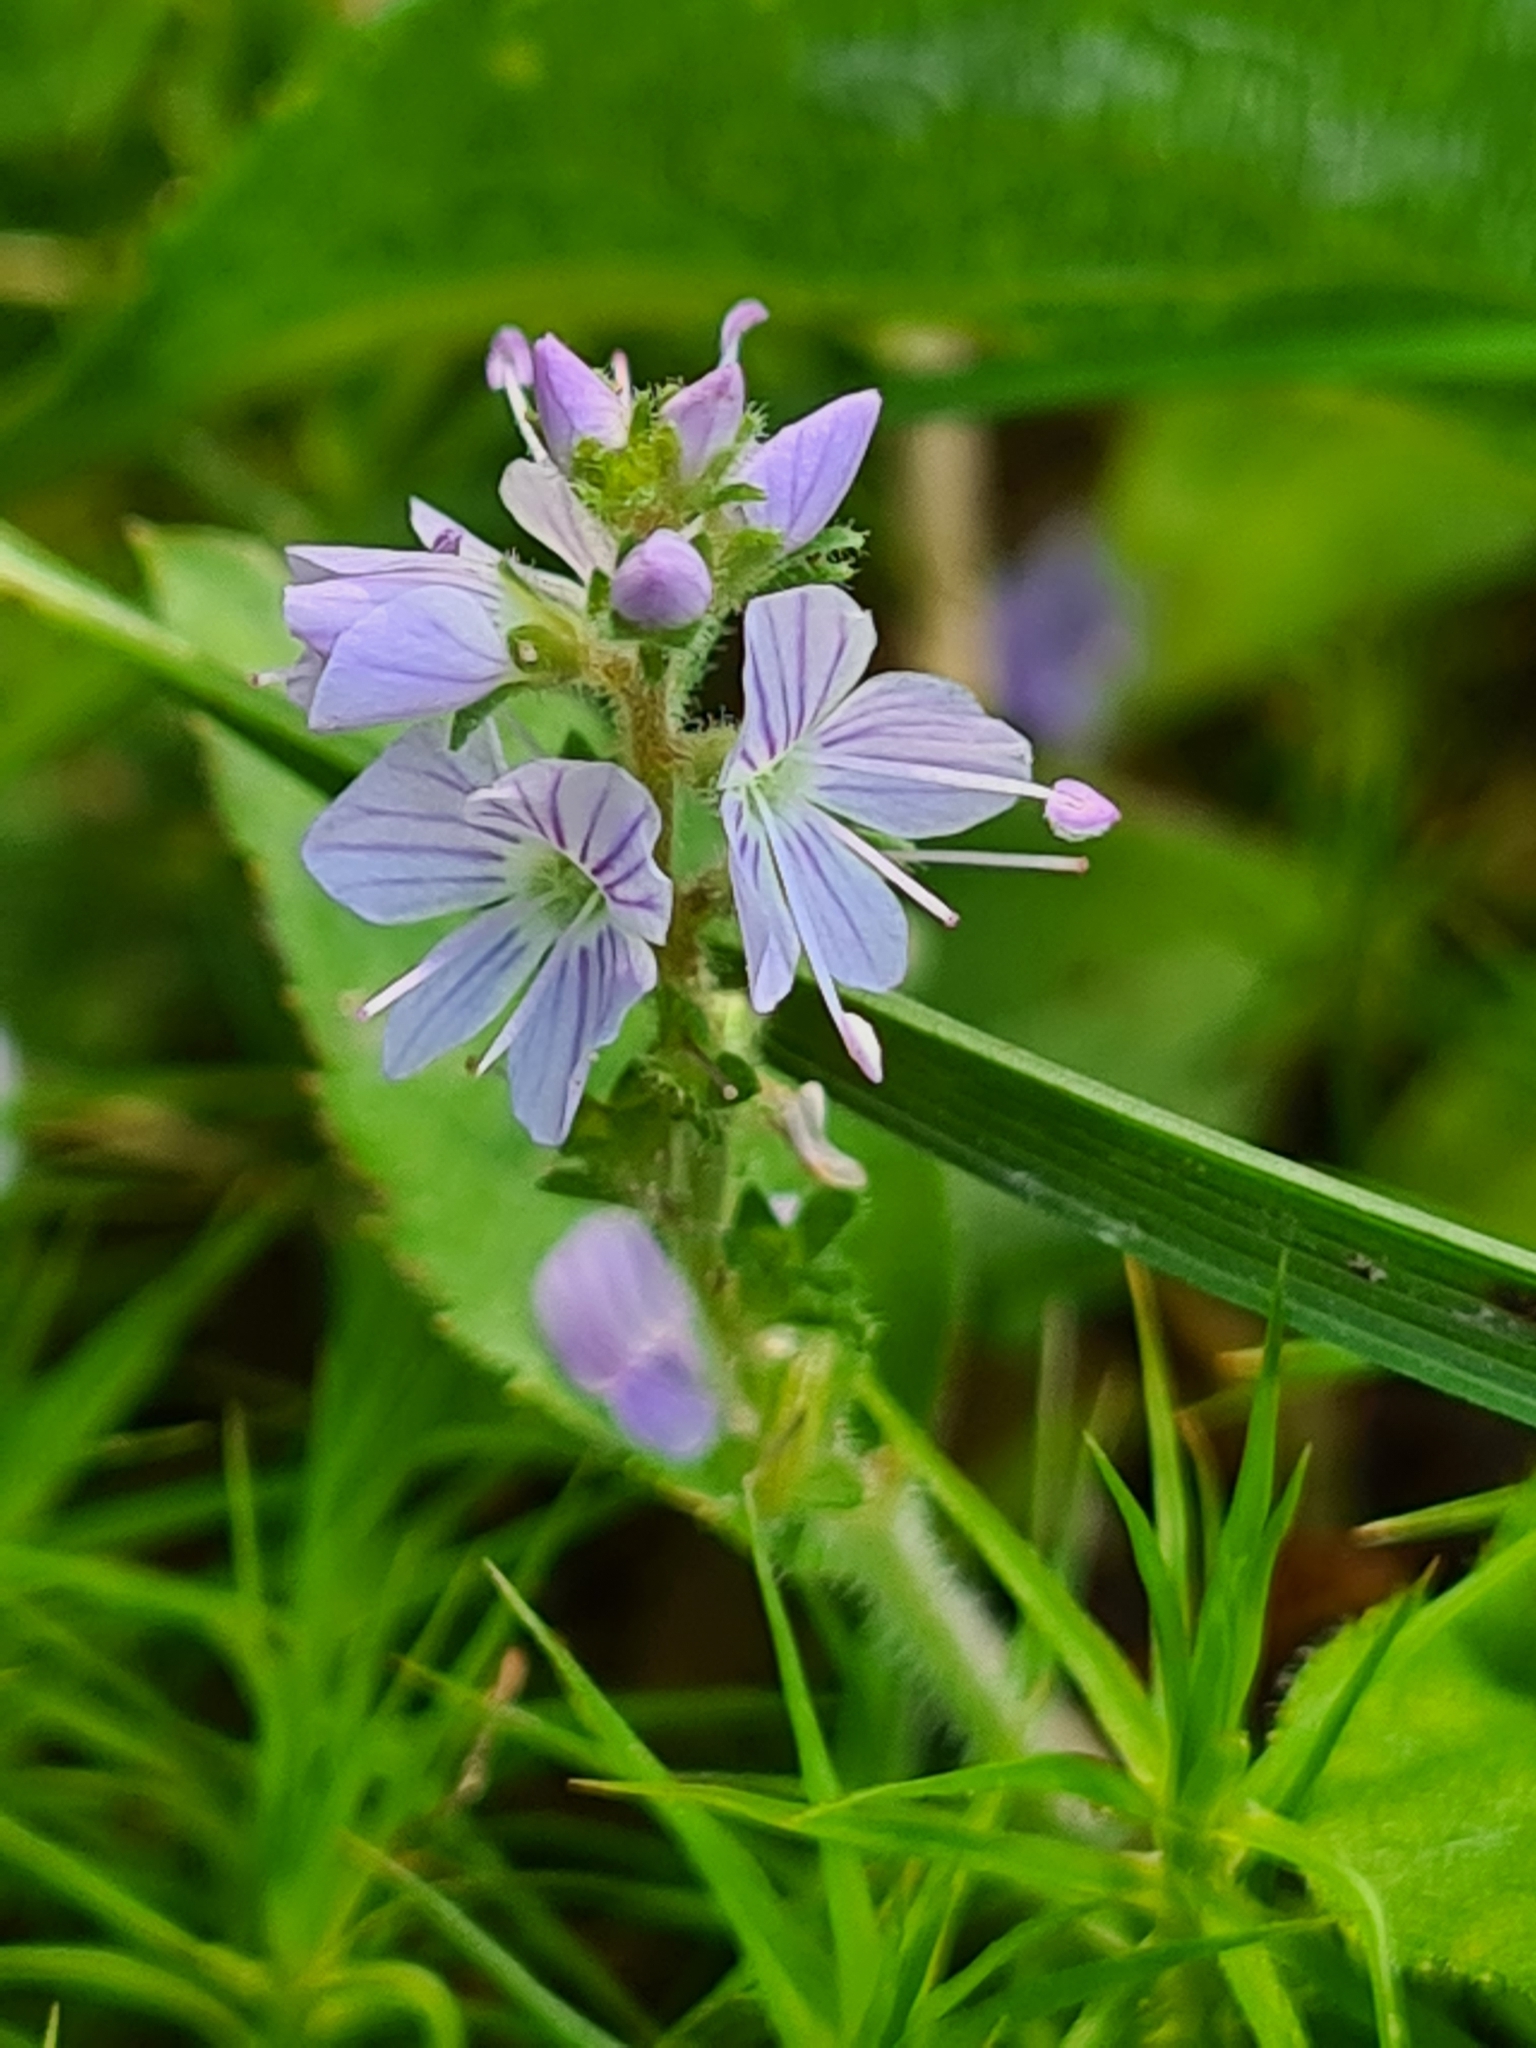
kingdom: Plantae
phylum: Tracheophyta
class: Magnoliopsida
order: Lamiales
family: Plantaginaceae
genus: Veronica
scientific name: Veronica officinalis
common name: Common speedwell
